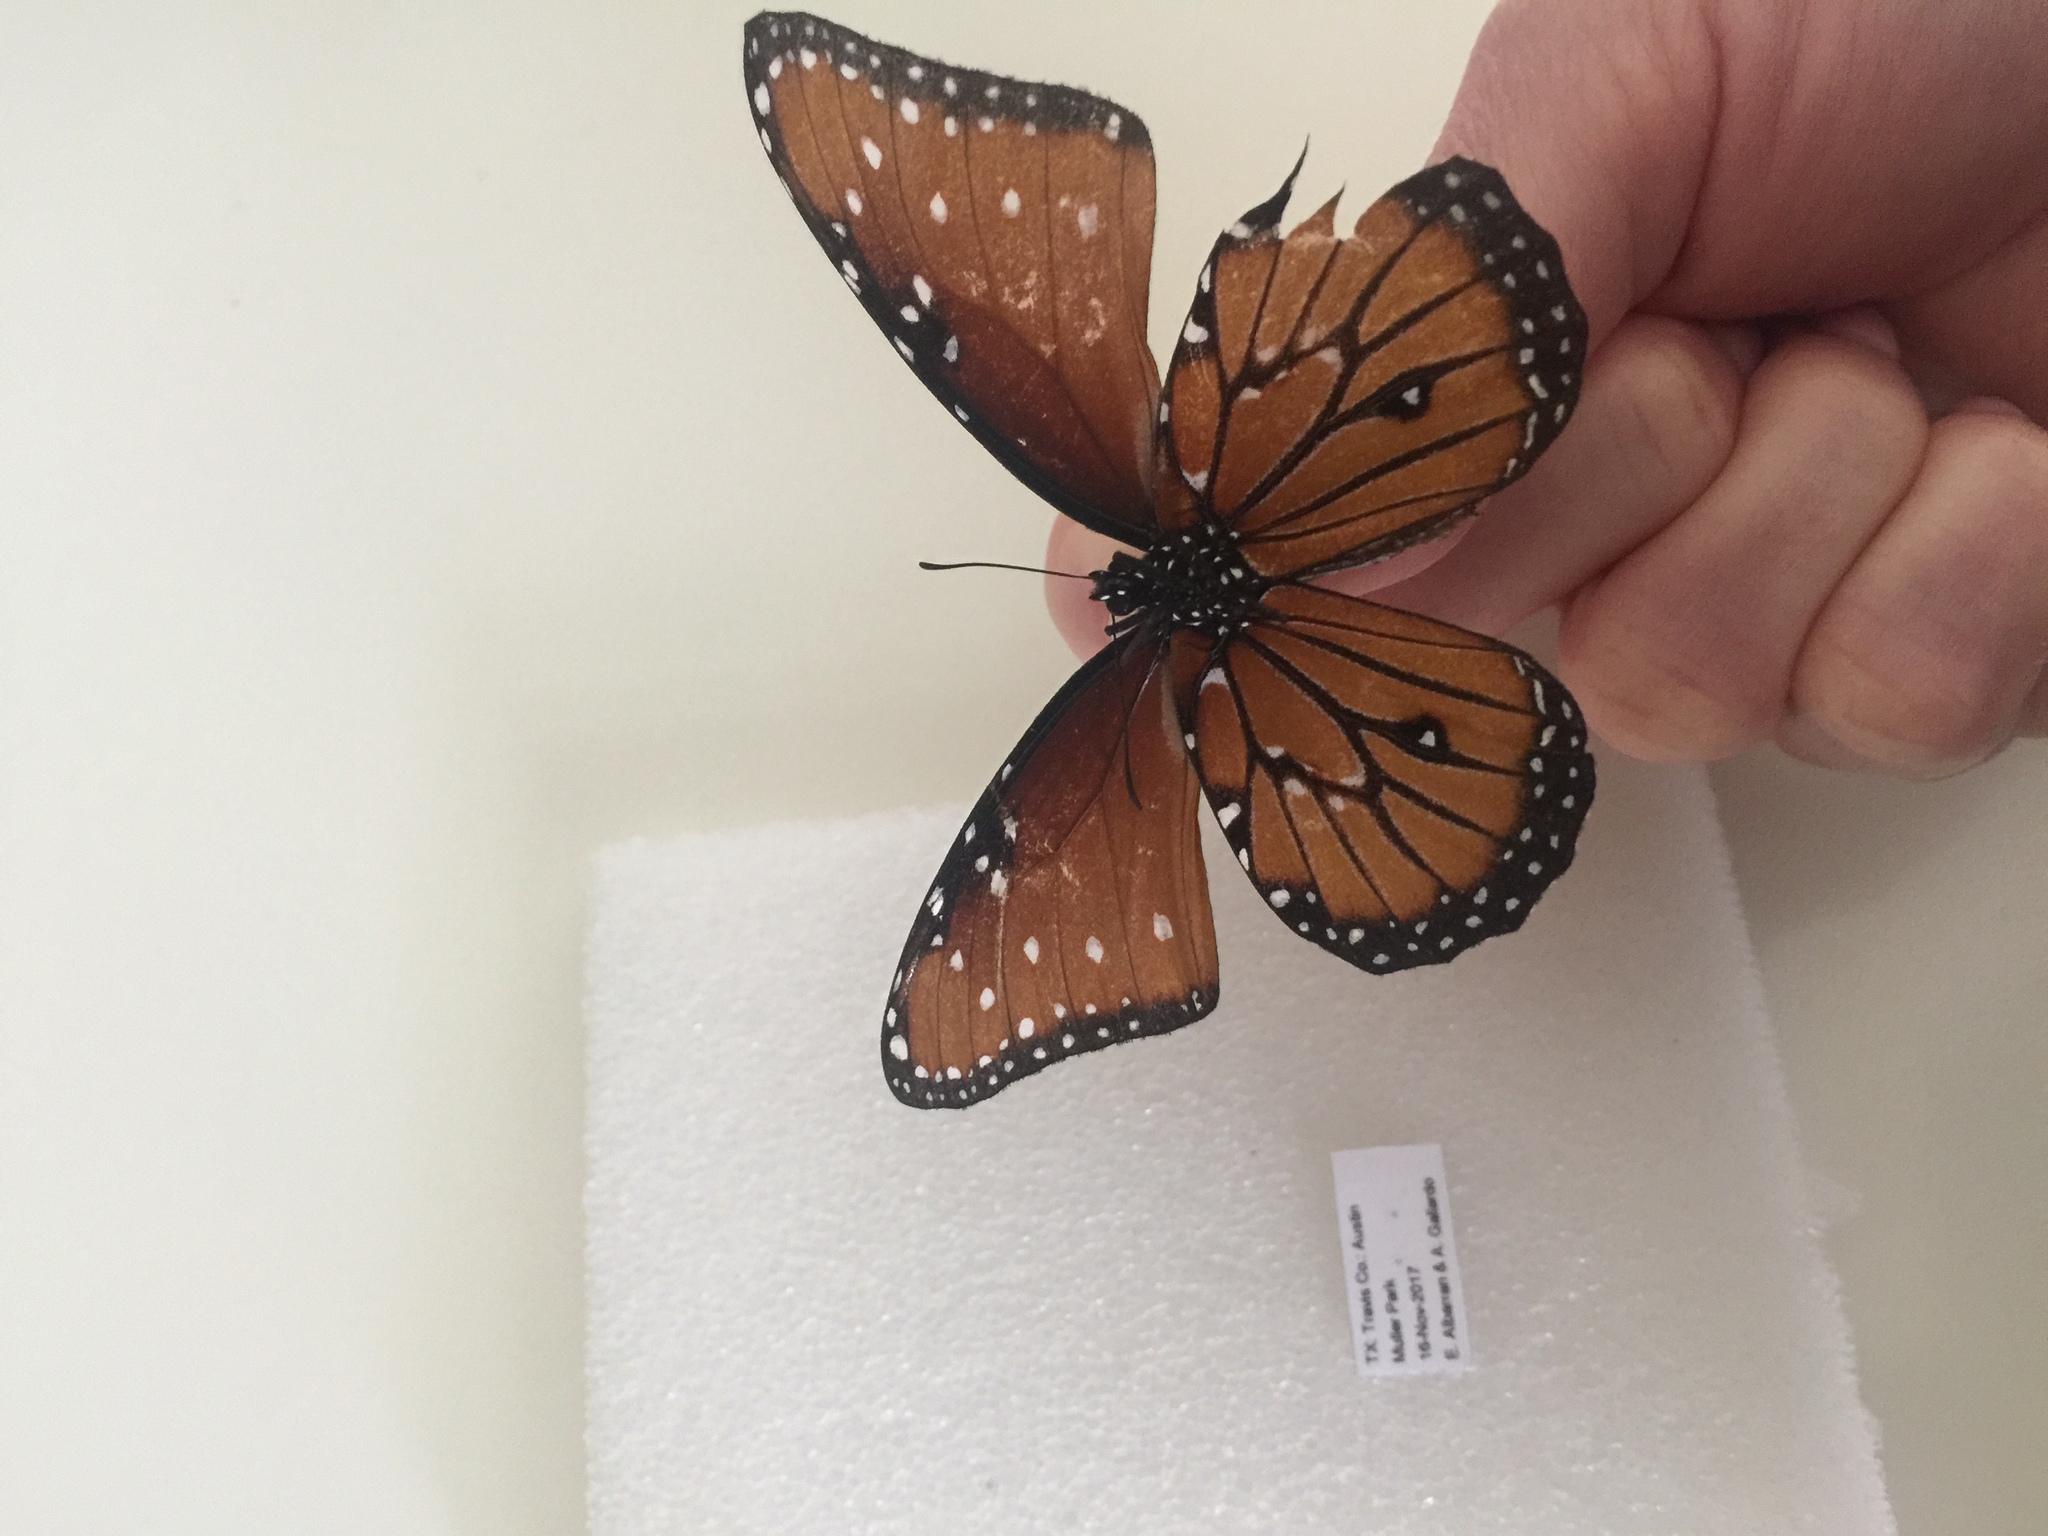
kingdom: Animalia
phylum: Arthropoda
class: Insecta
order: Lepidoptera
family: Nymphalidae
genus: Danaus
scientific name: Danaus gilippus
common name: Queen
